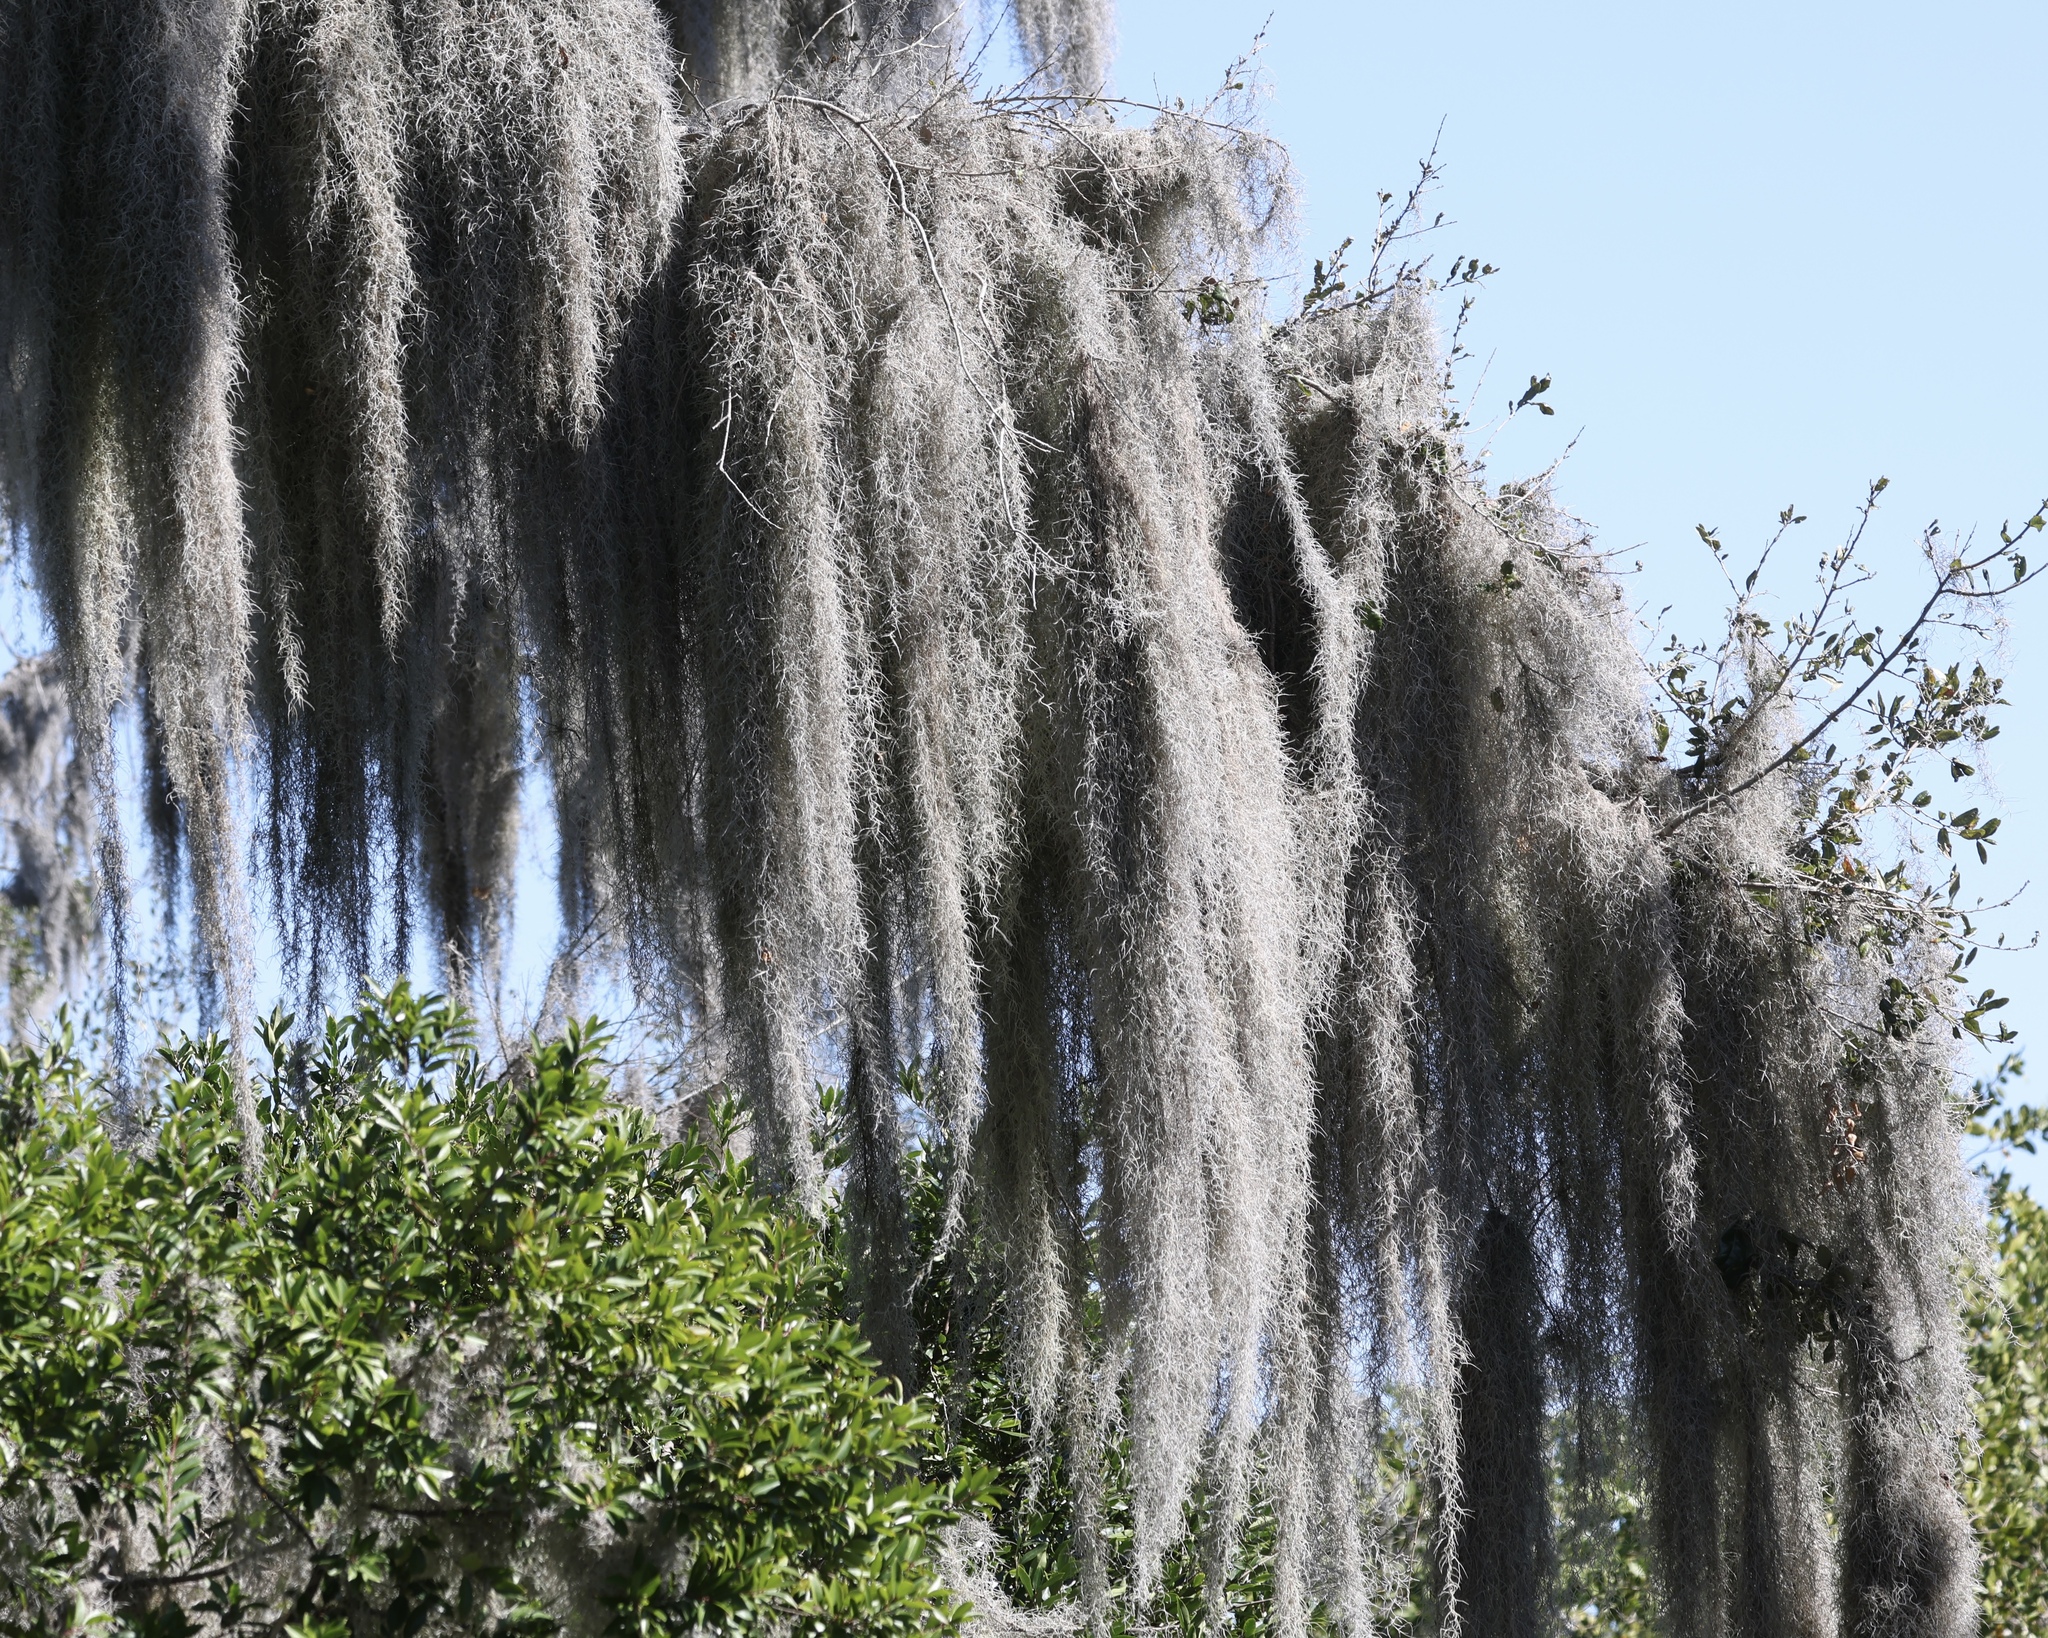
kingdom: Plantae
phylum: Tracheophyta
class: Liliopsida
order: Poales
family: Bromeliaceae
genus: Tillandsia
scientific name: Tillandsia usneoides
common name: Spanish moss
